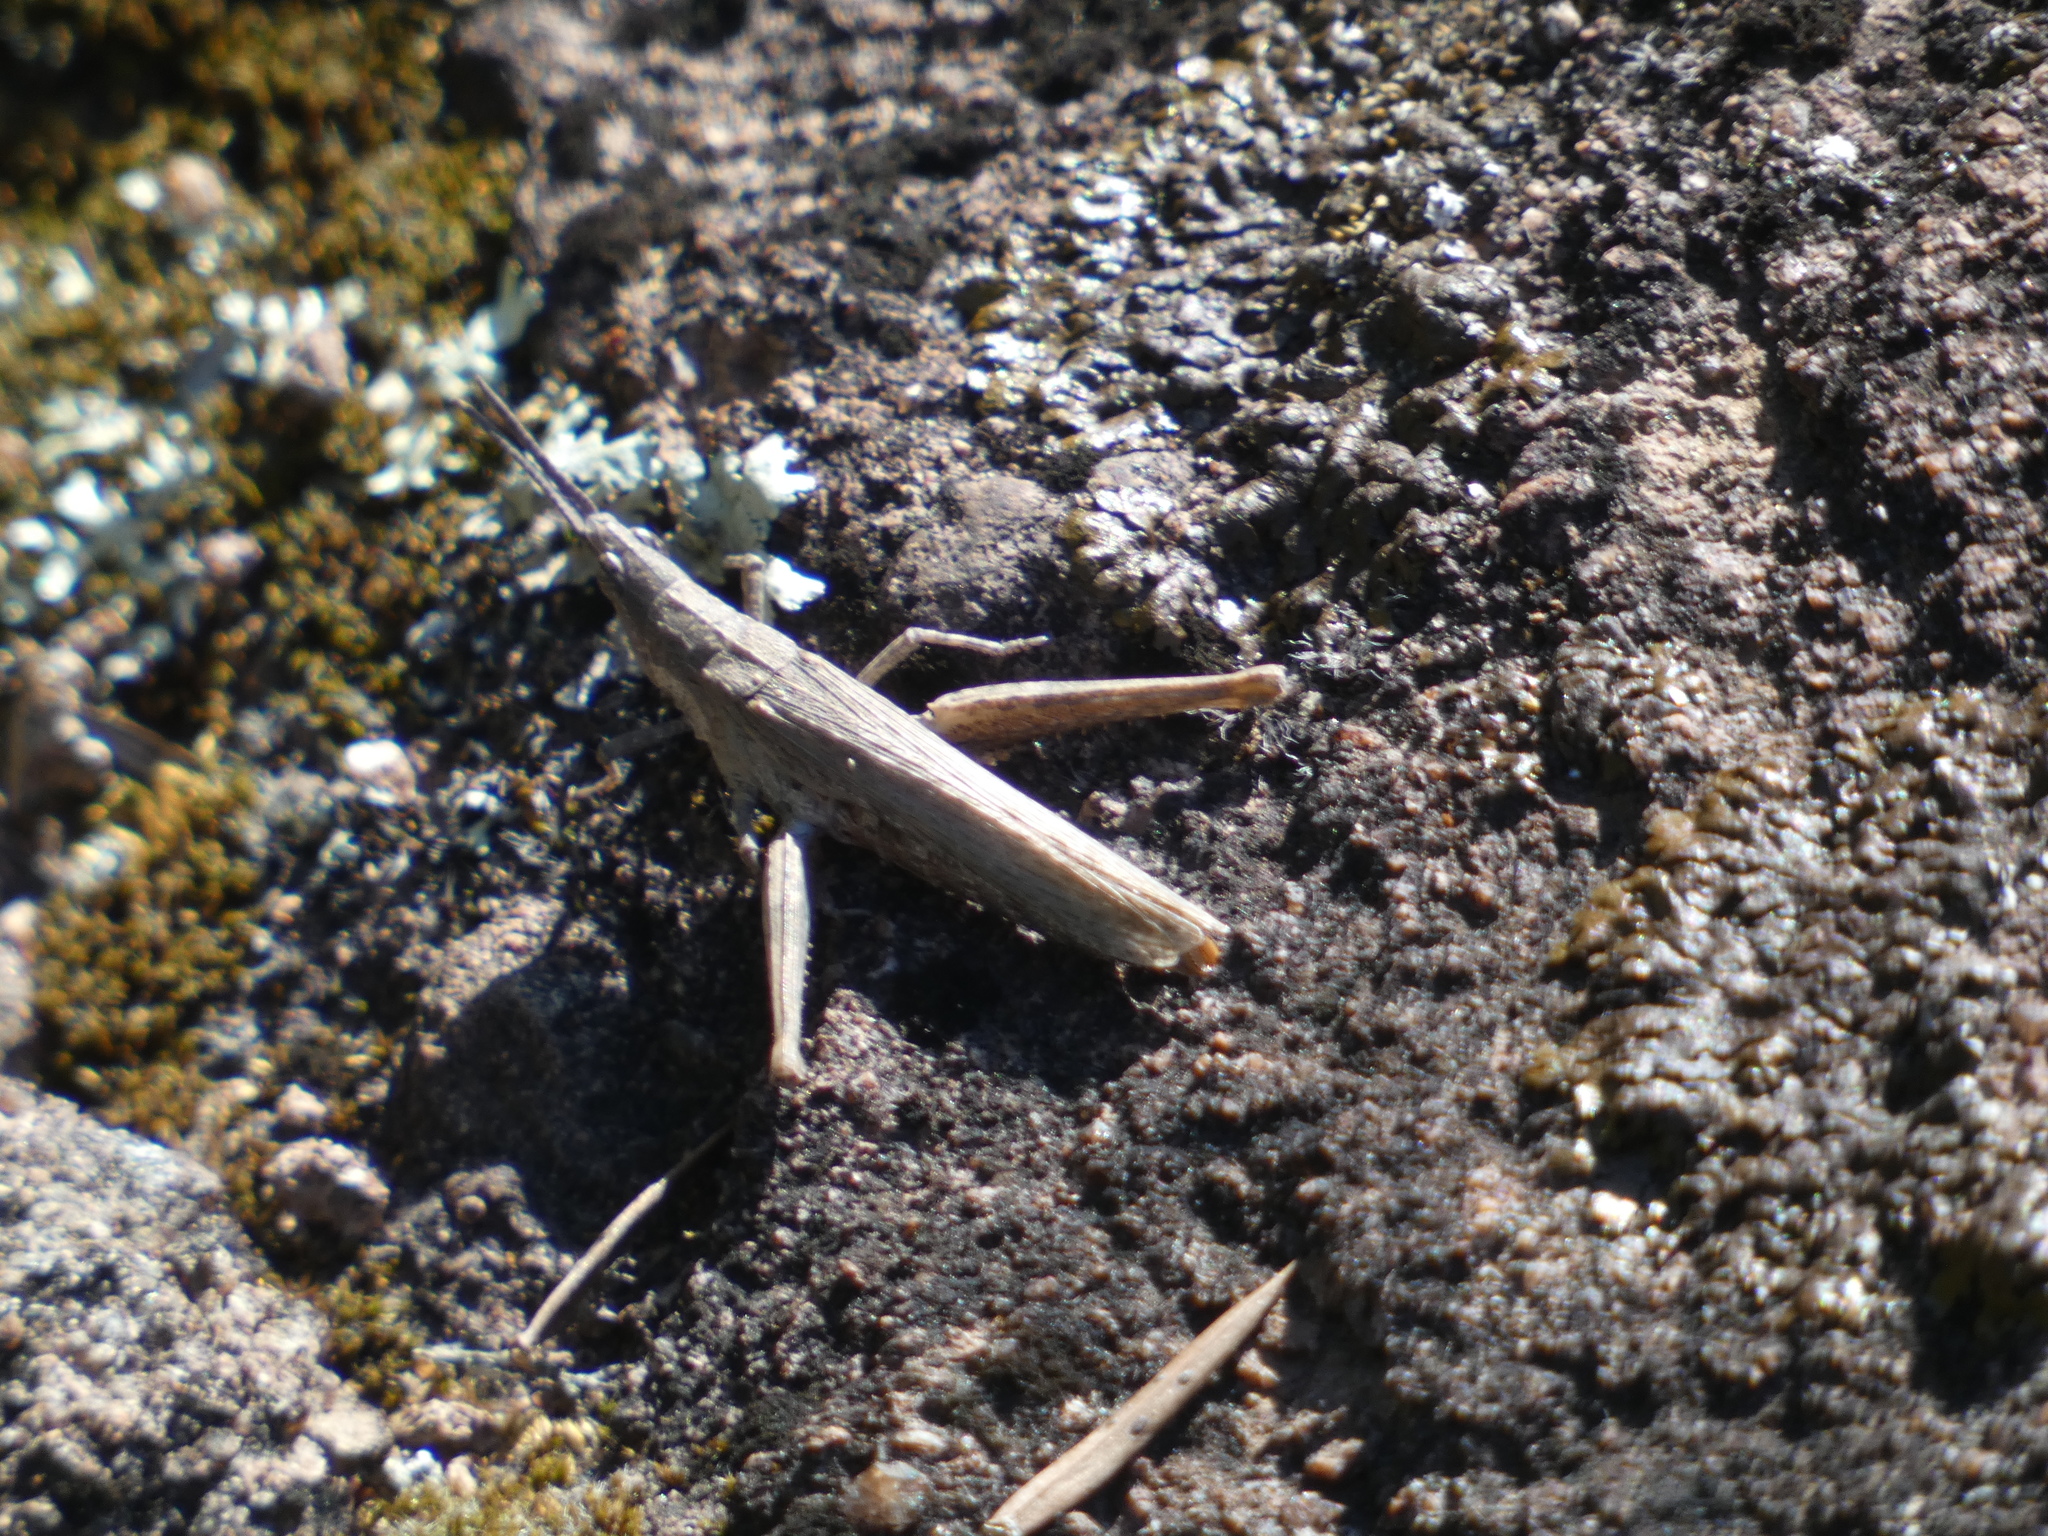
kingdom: Animalia
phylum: Arthropoda
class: Insecta
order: Orthoptera
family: Pyrgomorphidae
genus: Pyrgomorpha
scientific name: Pyrgomorpha conica
